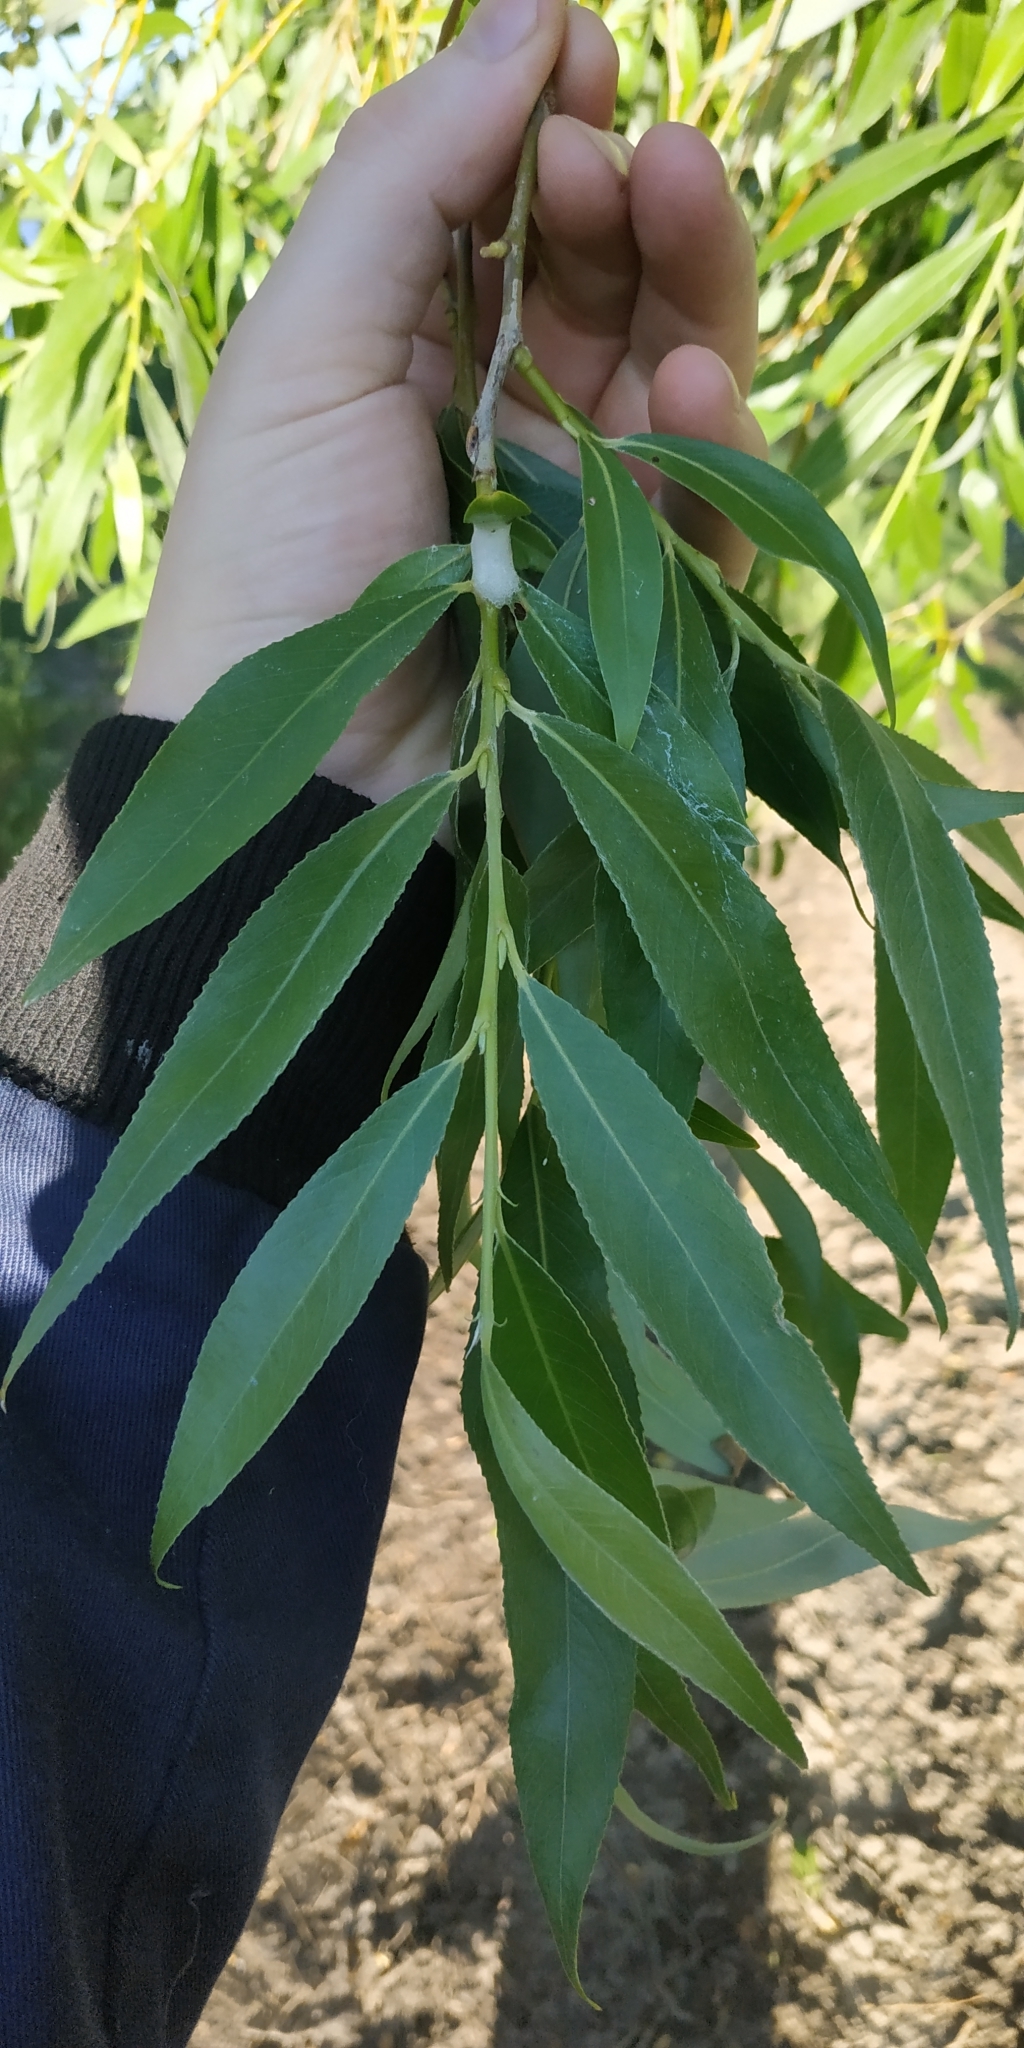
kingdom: Plantae
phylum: Tracheophyta
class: Magnoliopsida
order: Malpighiales
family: Salicaceae
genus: Salix
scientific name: Salix fragilis
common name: Crack willow
